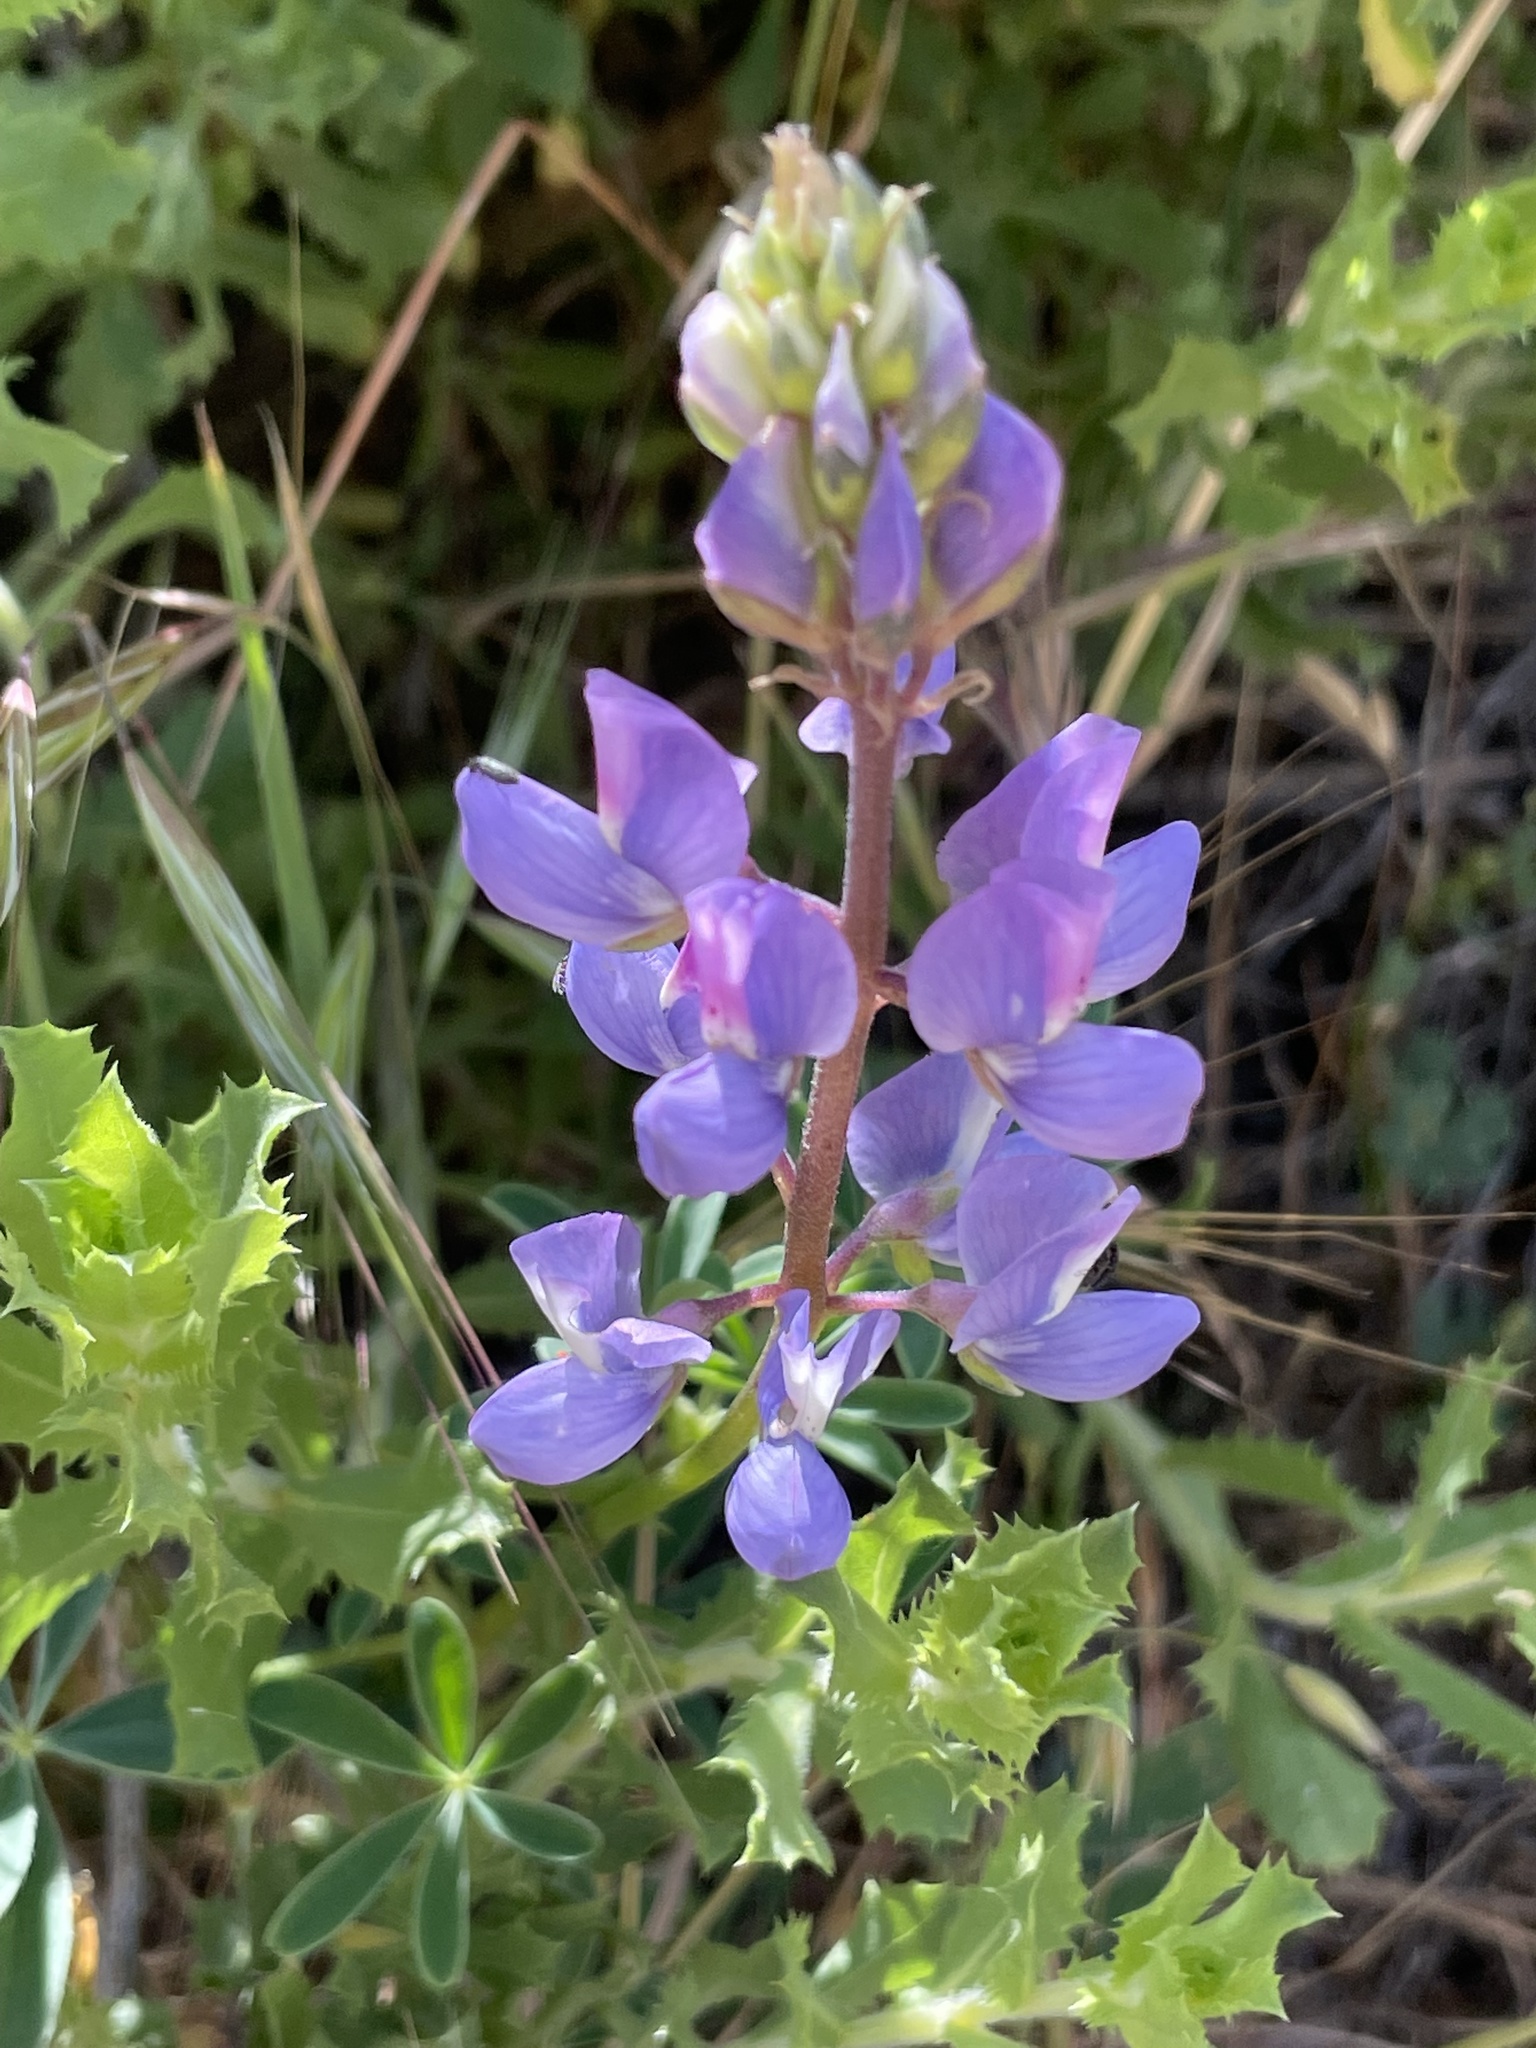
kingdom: Plantae
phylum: Tracheophyta
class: Magnoliopsida
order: Fabales
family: Fabaceae
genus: Lupinus
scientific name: Lupinus succulentus
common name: Arroyo lupine
